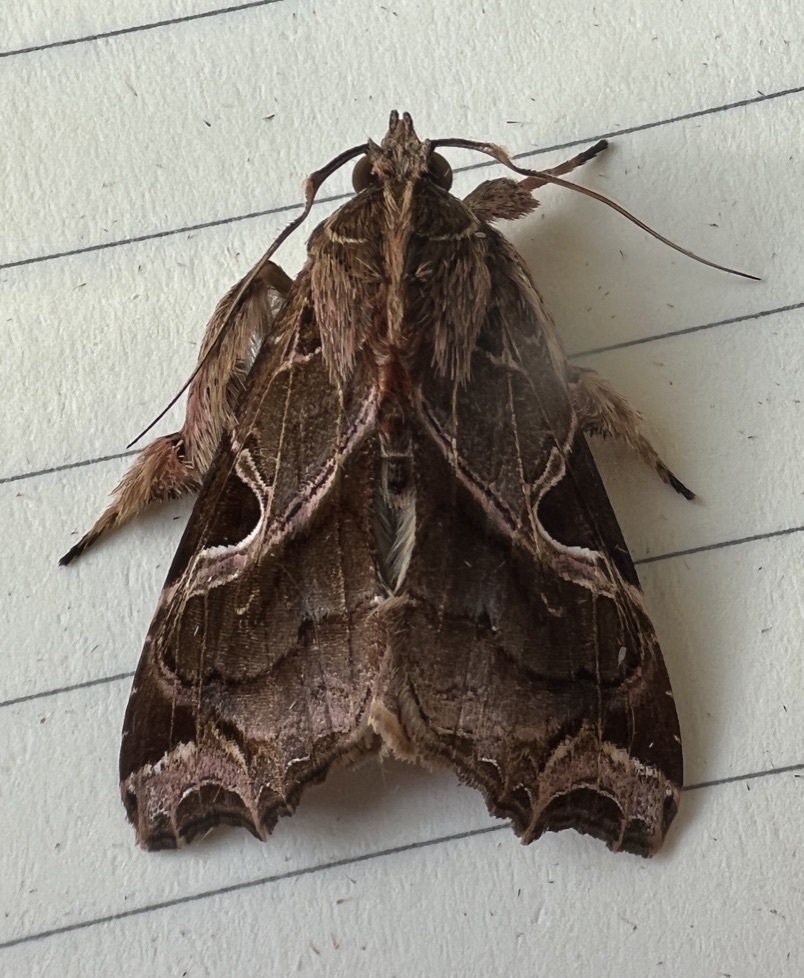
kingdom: Animalia
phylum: Arthropoda
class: Insecta
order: Lepidoptera
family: Noctuidae
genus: Callopistria
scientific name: Callopistria floridensis
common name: Florida fern moth
